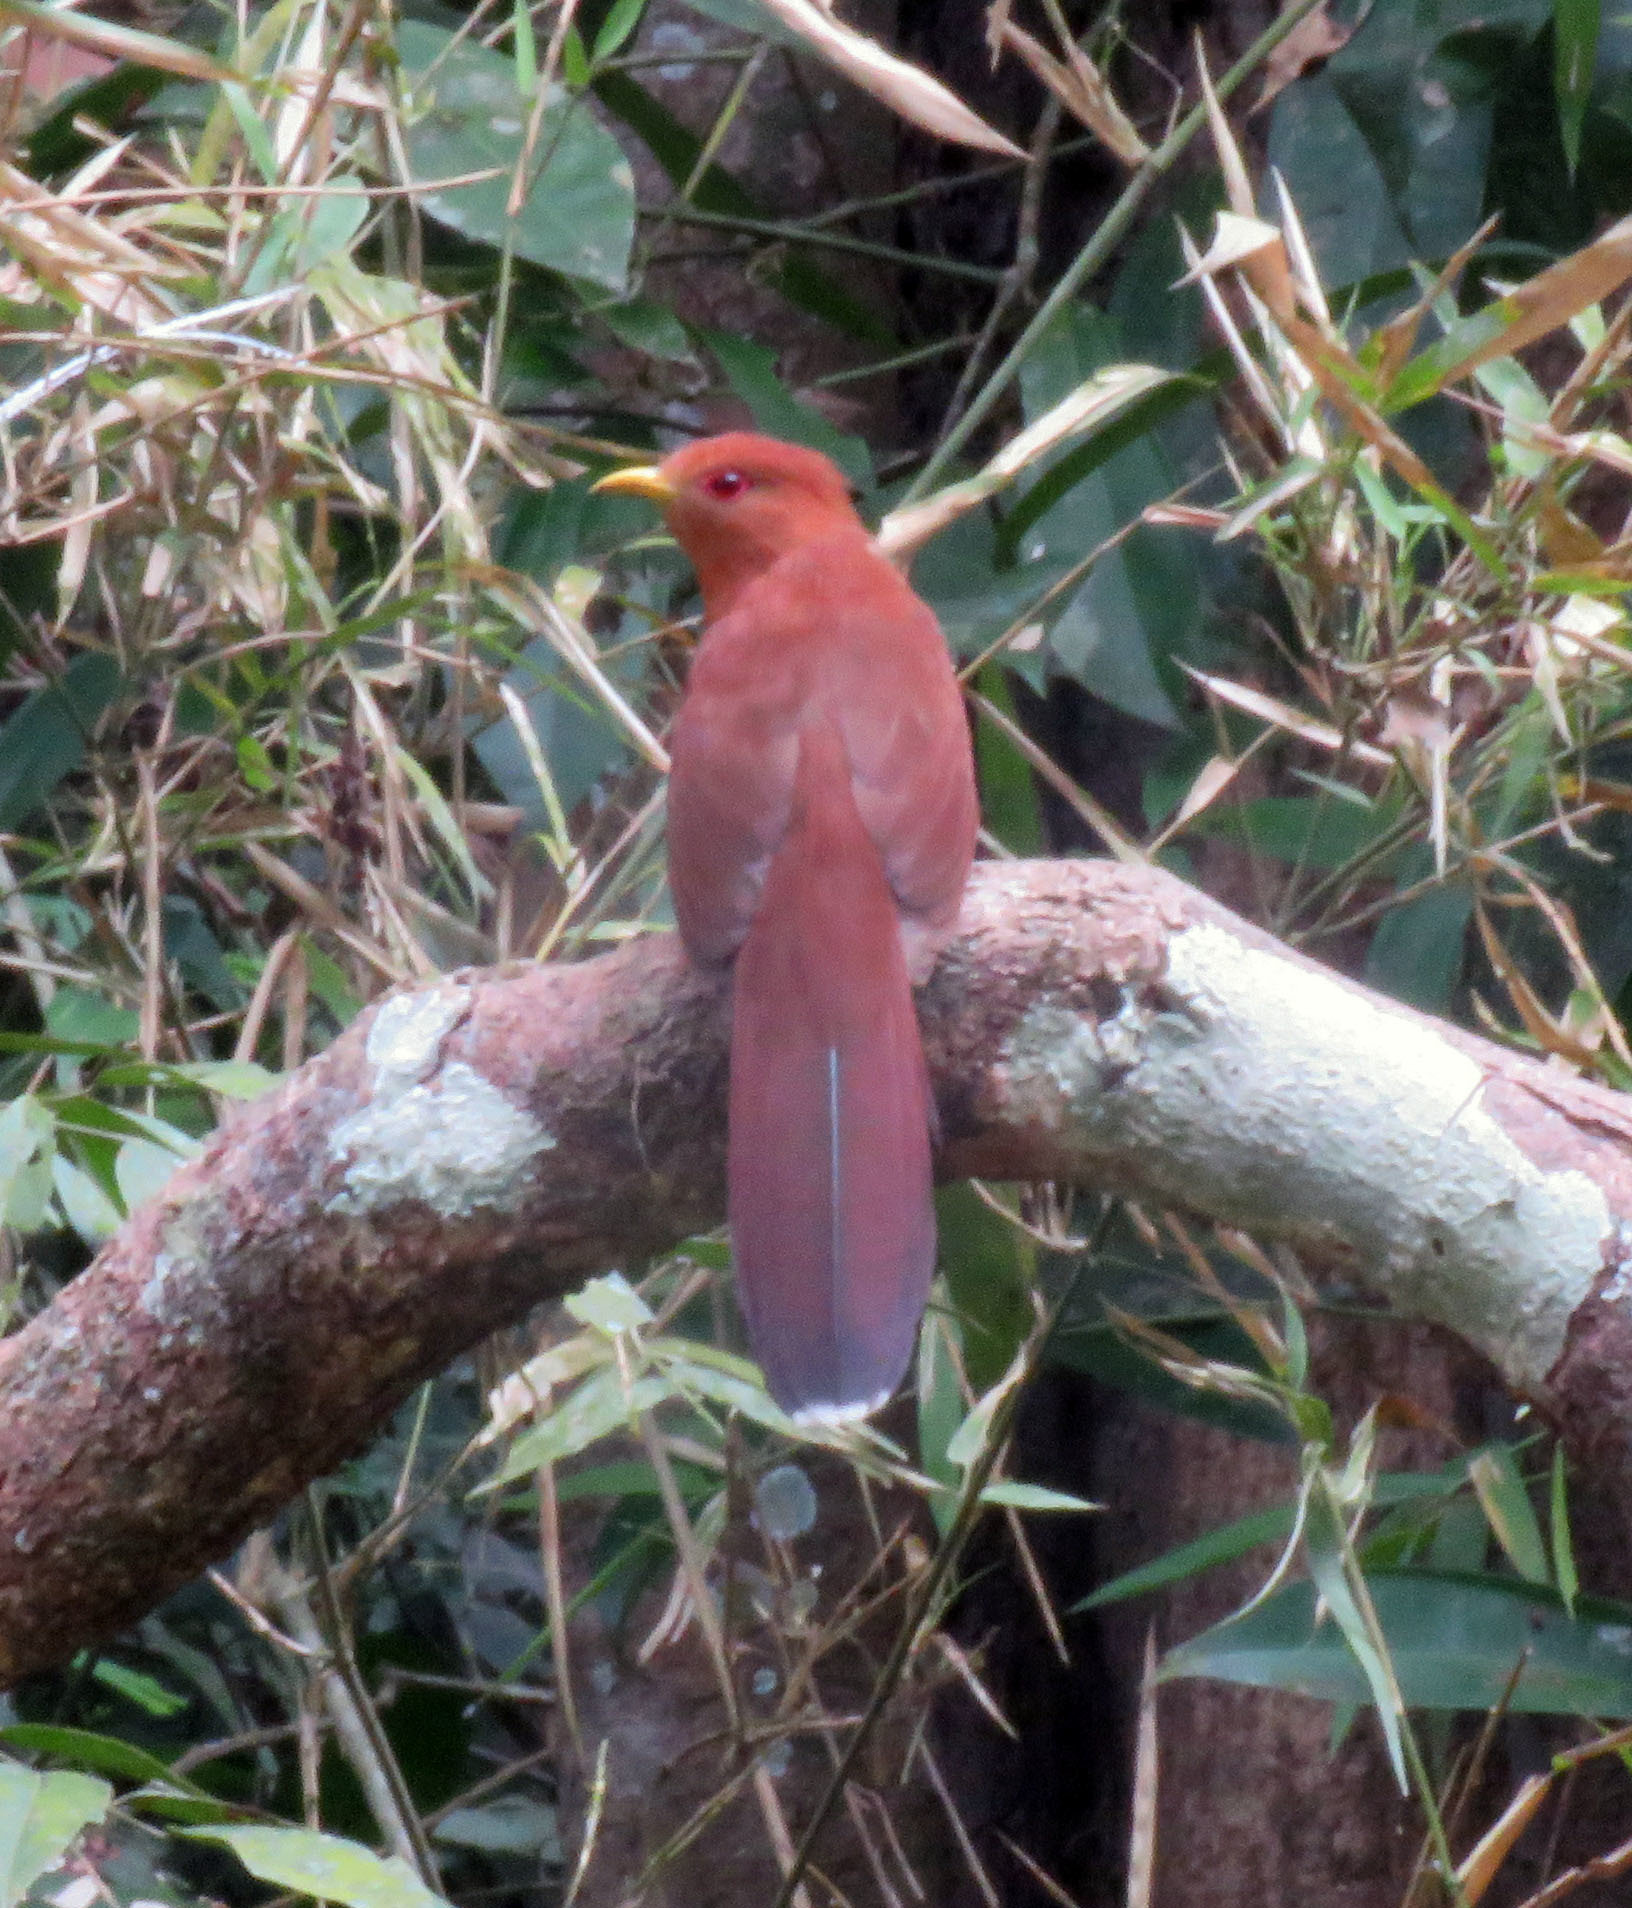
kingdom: Animalia
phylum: Chordata
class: Aves
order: Cuculiformes
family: Cuculidae
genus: Piaya
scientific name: Piaya minuta
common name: Little cuckoo
